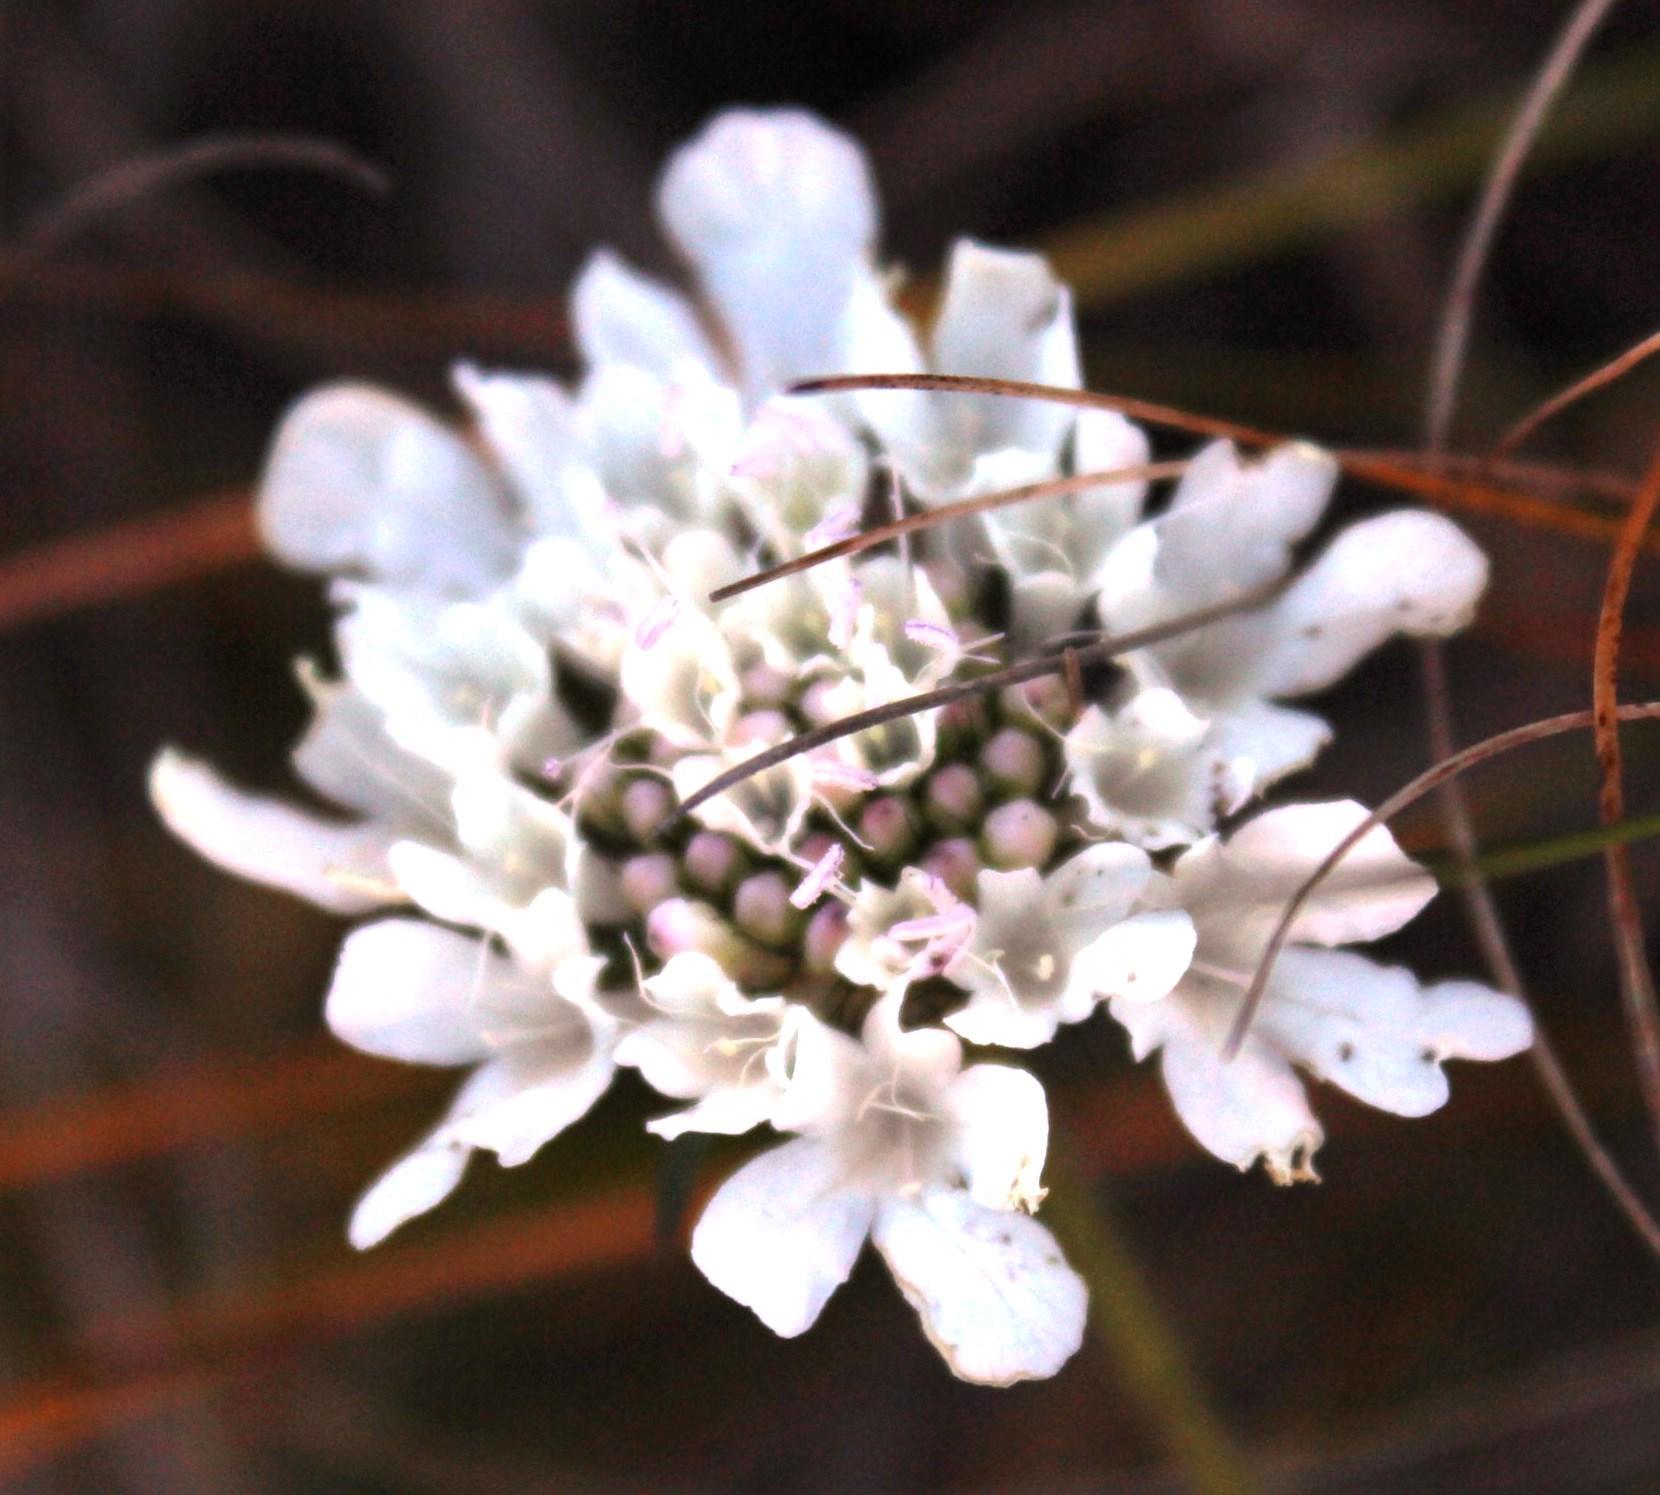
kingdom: Plantae
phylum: Tracheophyta
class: Magnoliopsida
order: Dipsacales
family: Caprifoliaceae
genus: Scabiosa
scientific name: Scabiosa columbaria
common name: Small scabious
